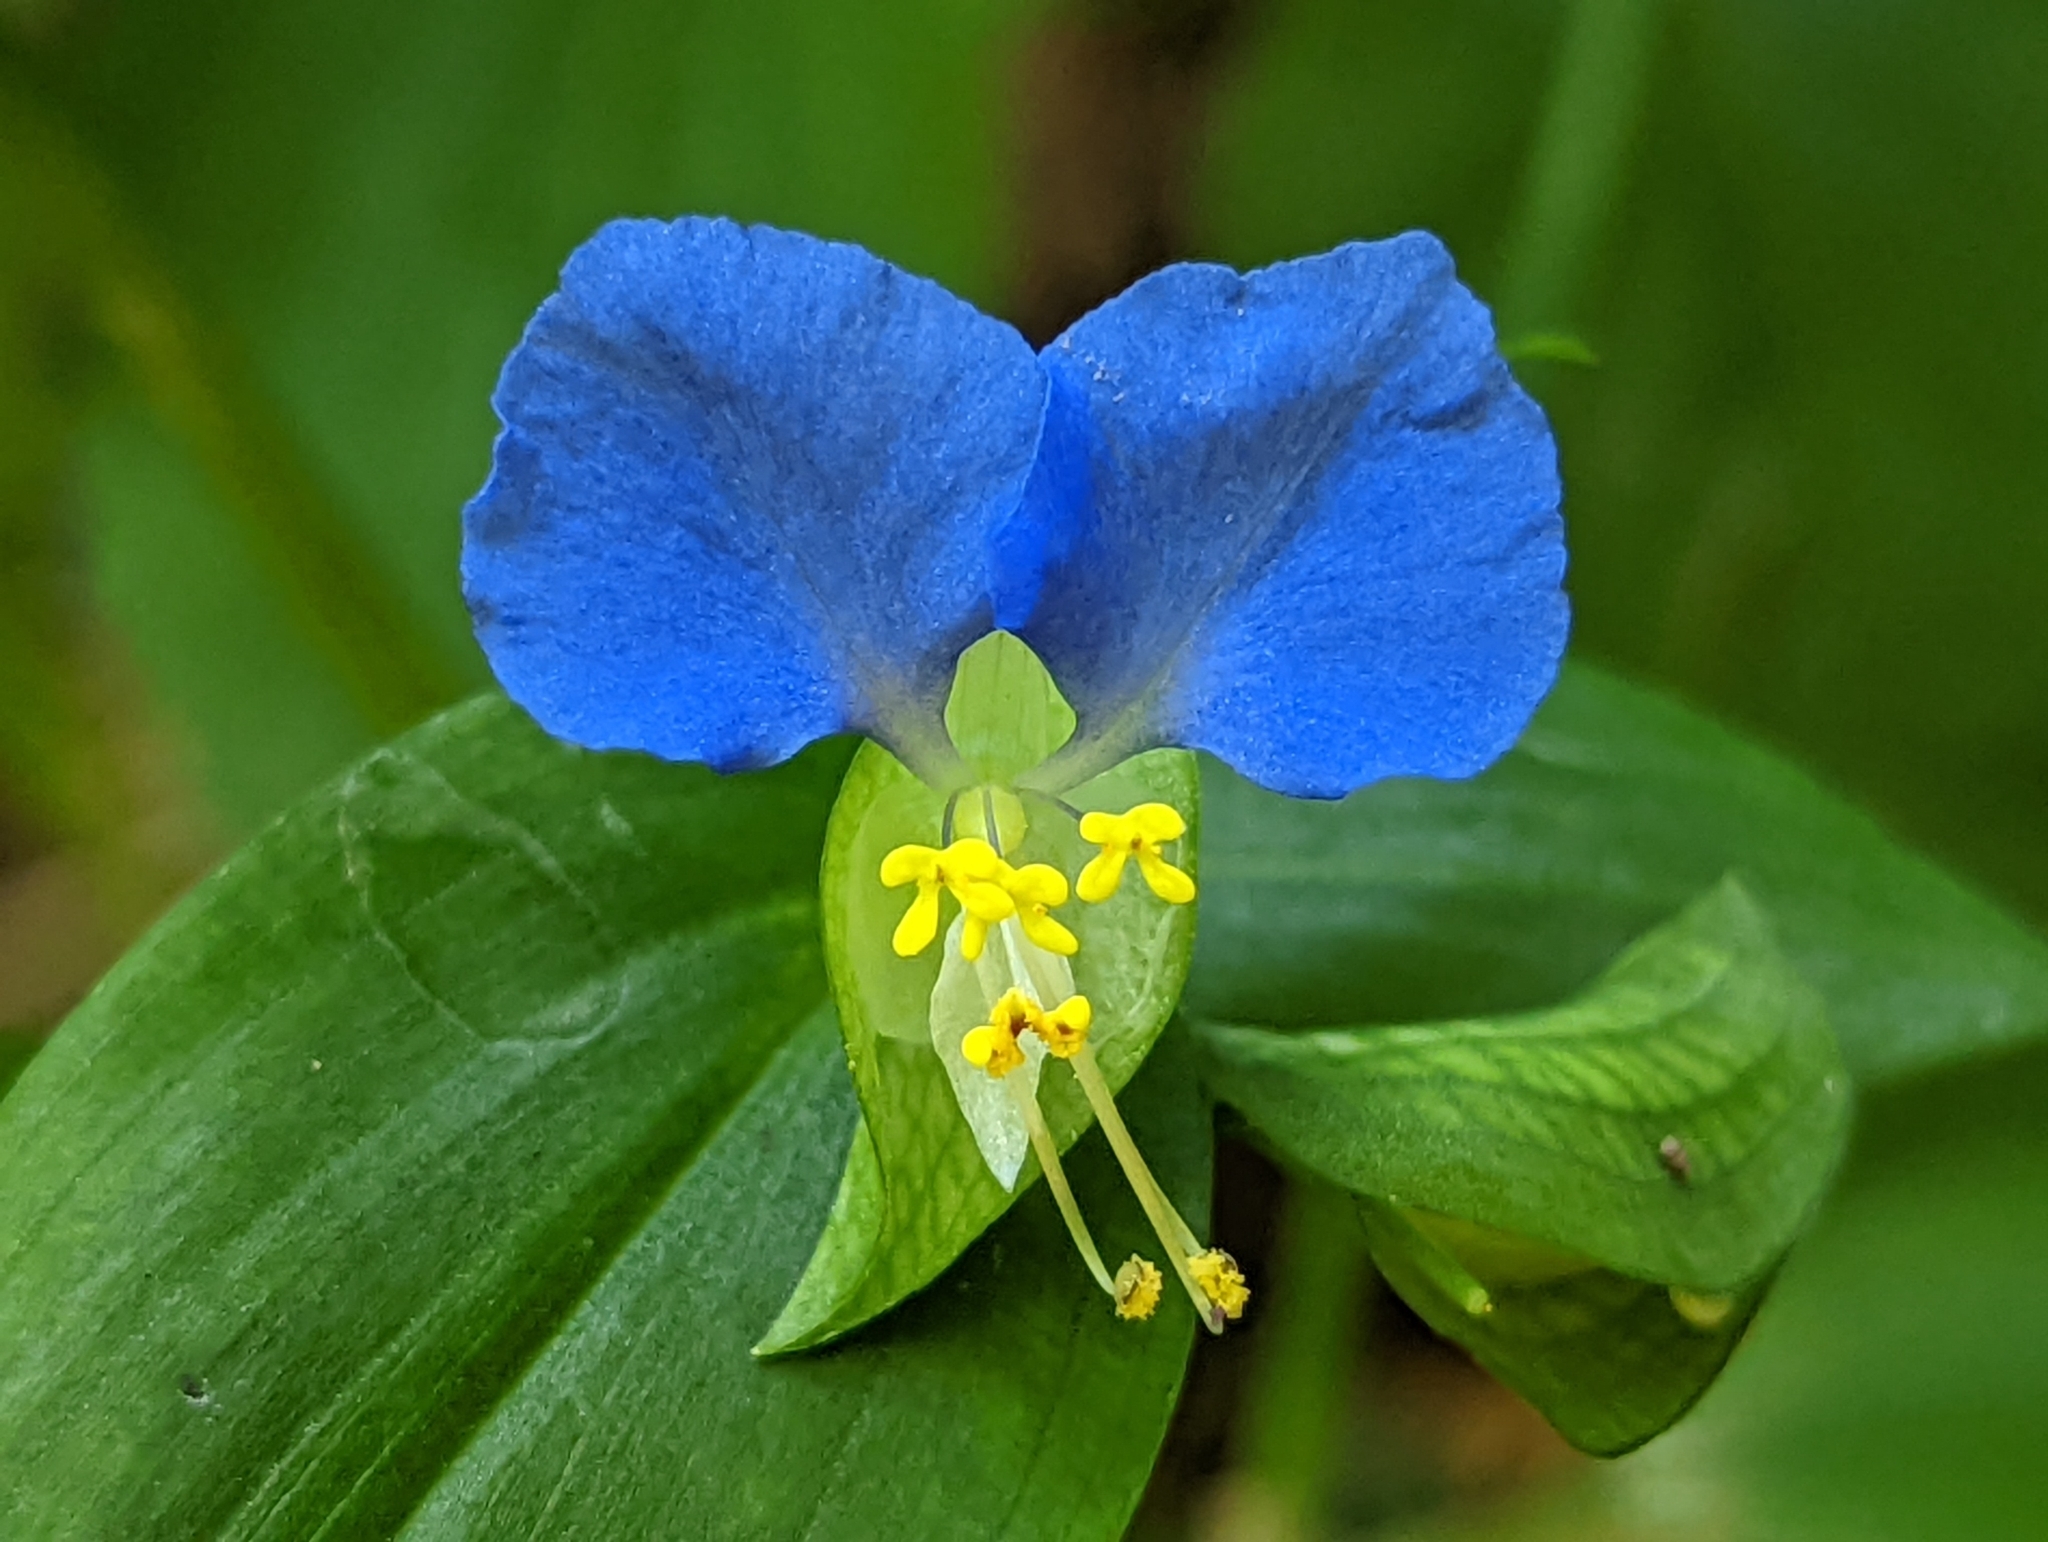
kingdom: Plantae
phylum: Tracheophyta
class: Liliopsida
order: Commelinales
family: Commelinaceae
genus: Commelina
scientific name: Commelina communis
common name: Asiatic dayflower
